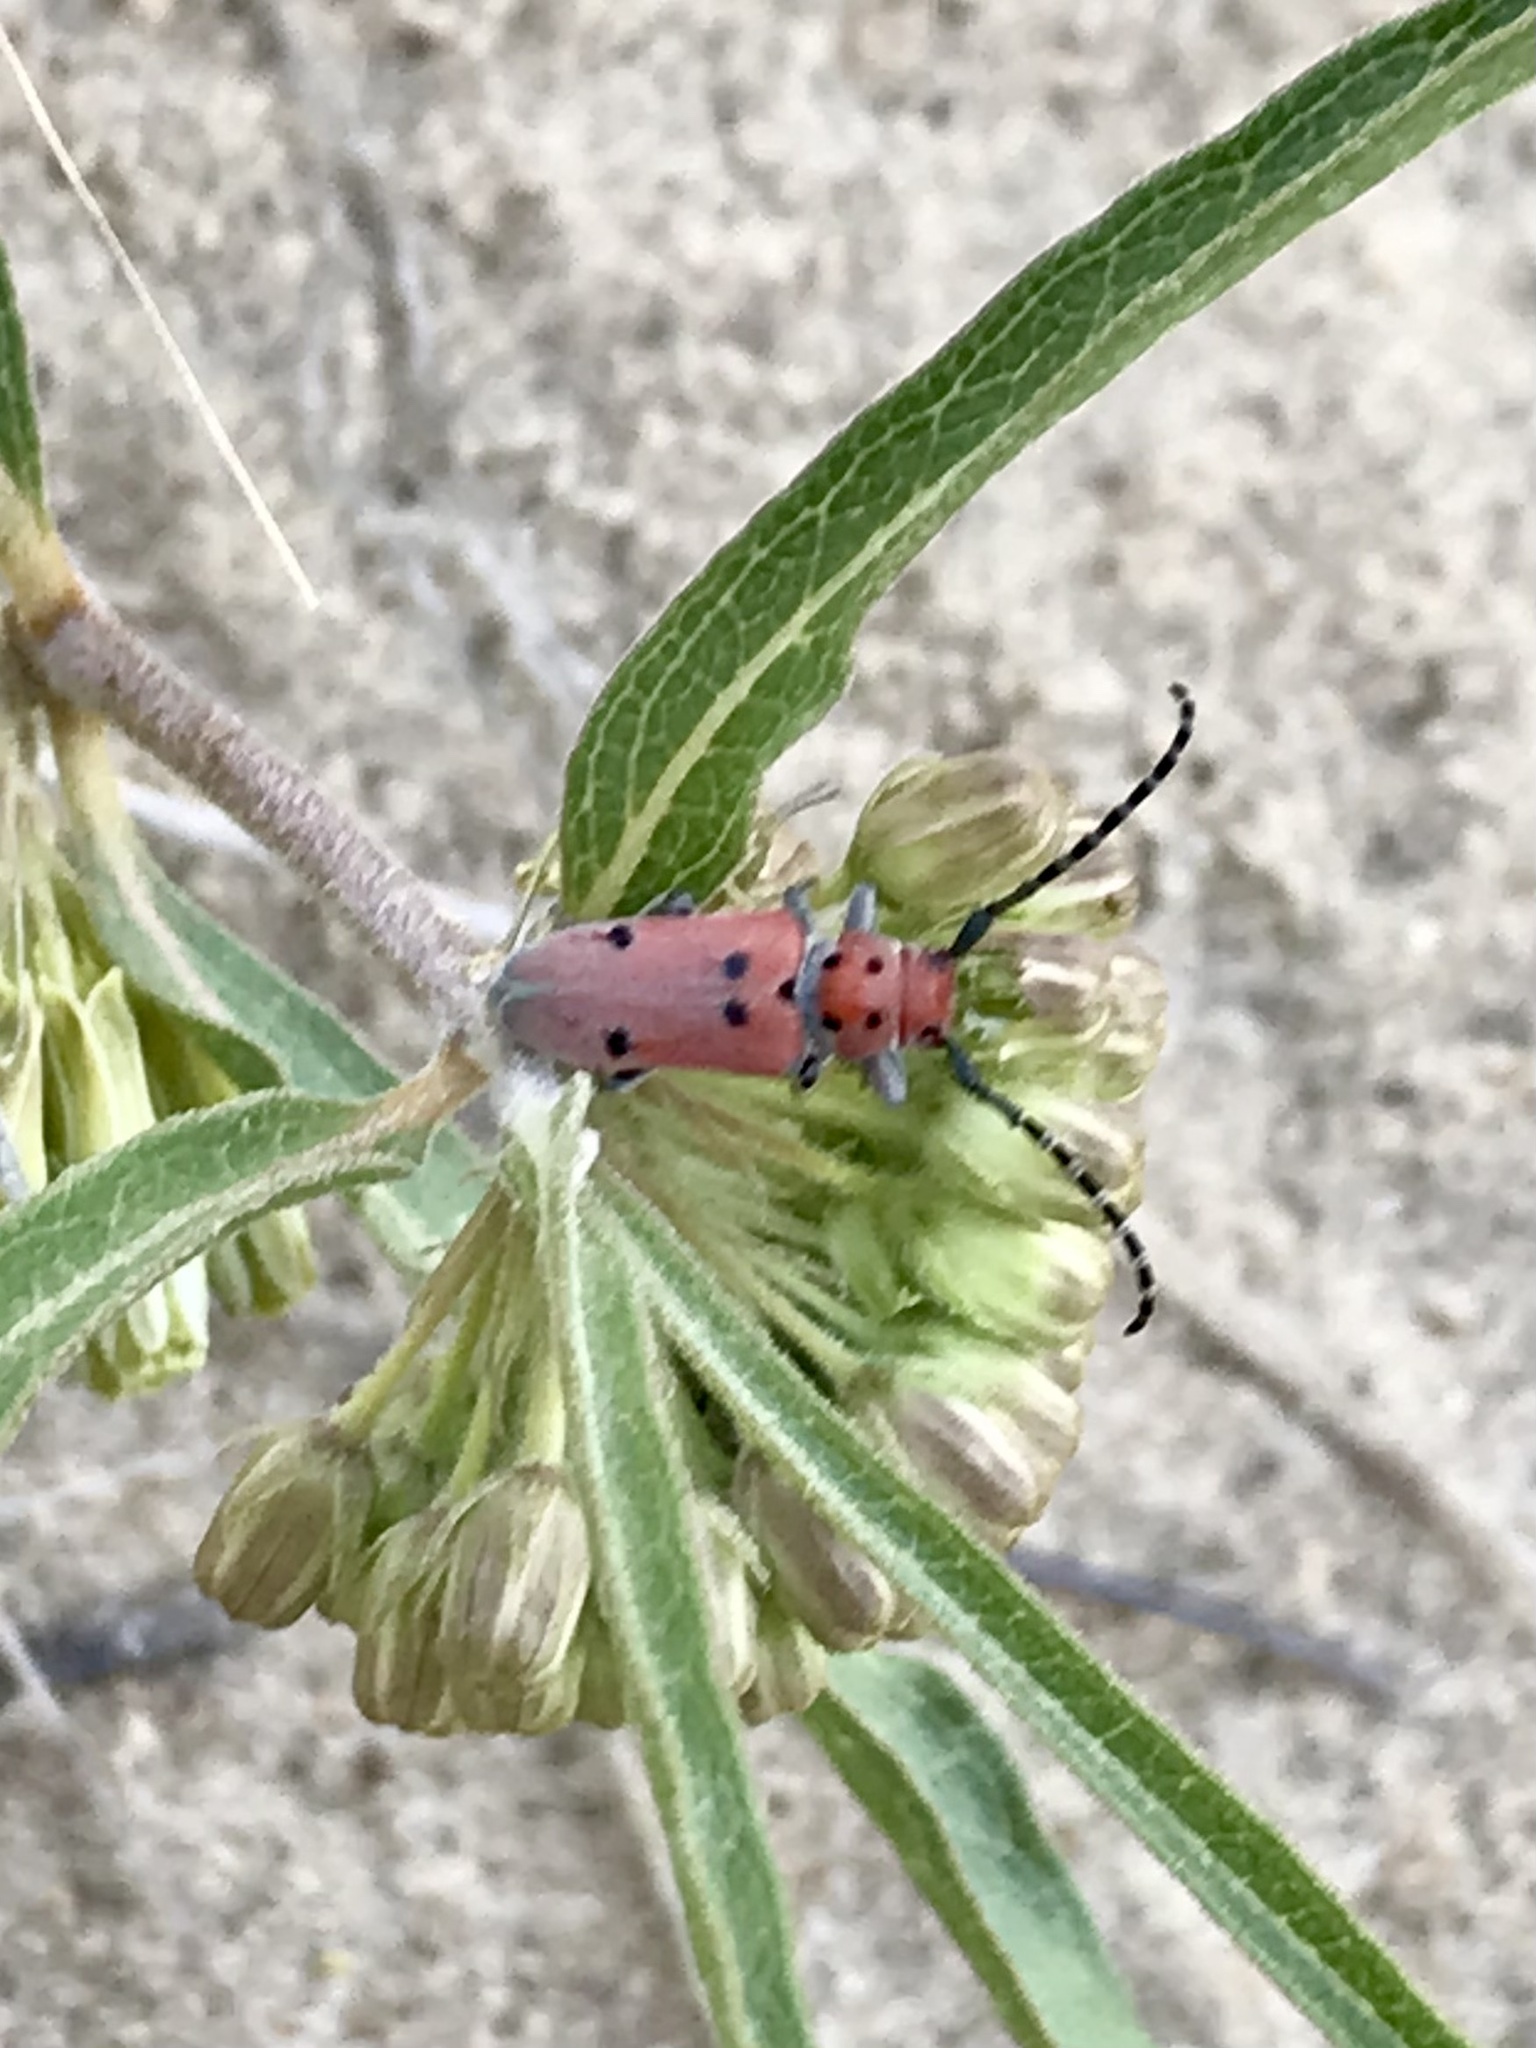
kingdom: Animalia
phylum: Arthropoda
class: Insecta
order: Coleoptera
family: Cerambycidae
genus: Tetraopes
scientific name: Tetraopes annulatus
